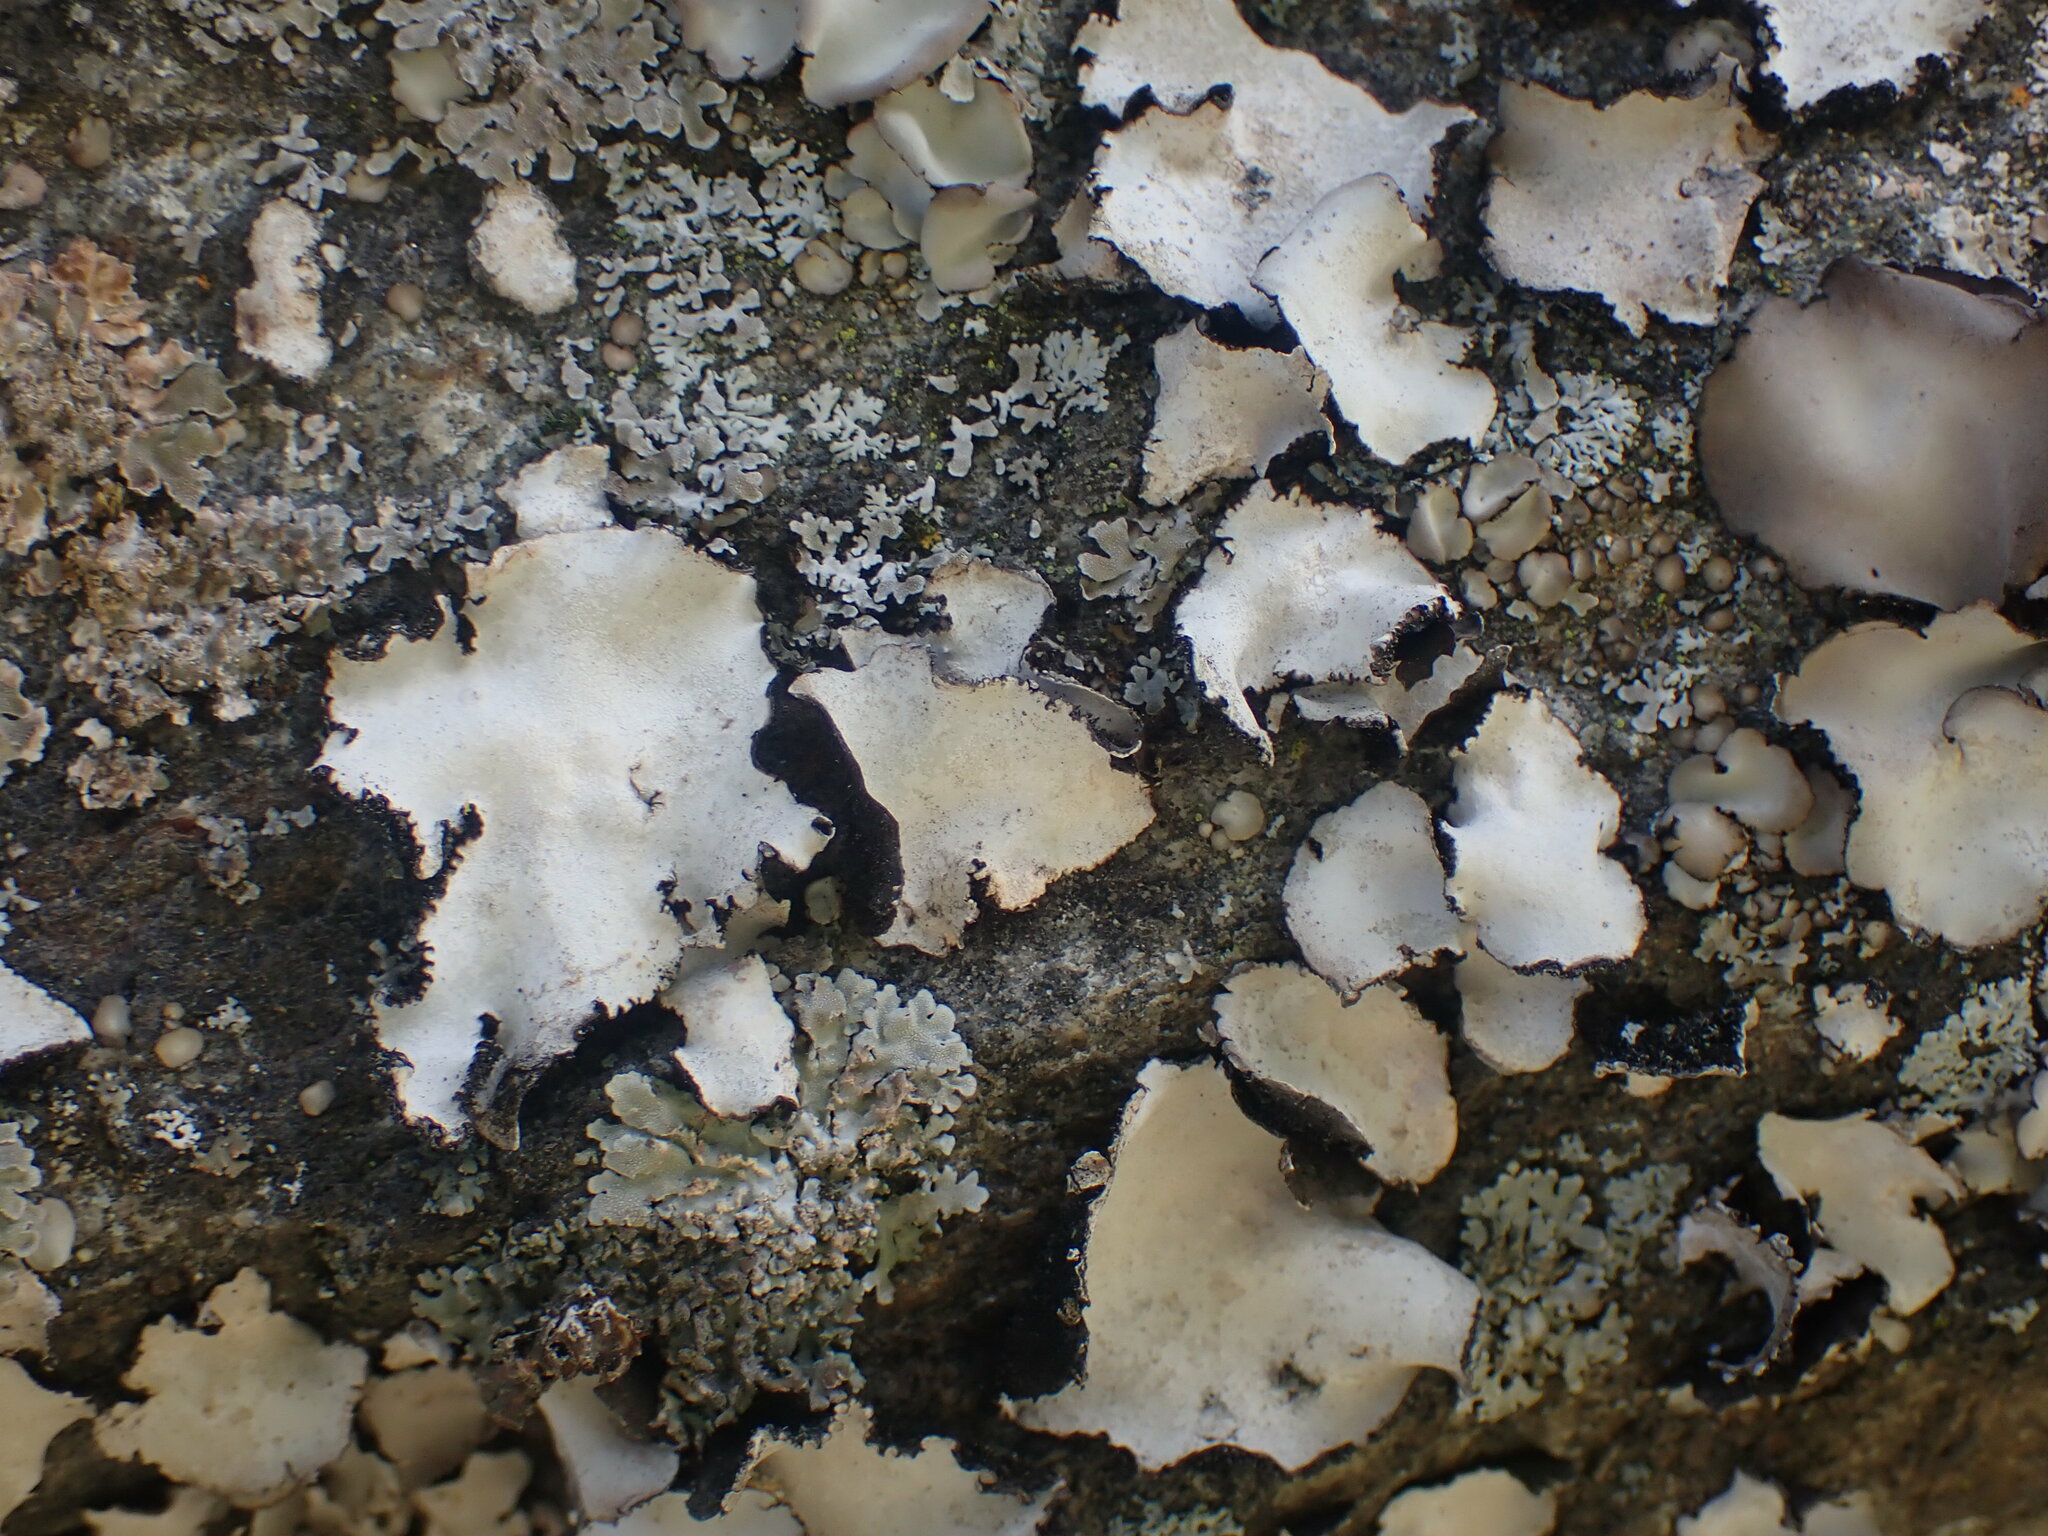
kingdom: Fungi
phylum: Ascomycota
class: Lecanoromycetes
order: Umbilicariales
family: Umbilicariaceae
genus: Umbilicaria
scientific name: Umbilicaria americana
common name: Frosted rock tripe
